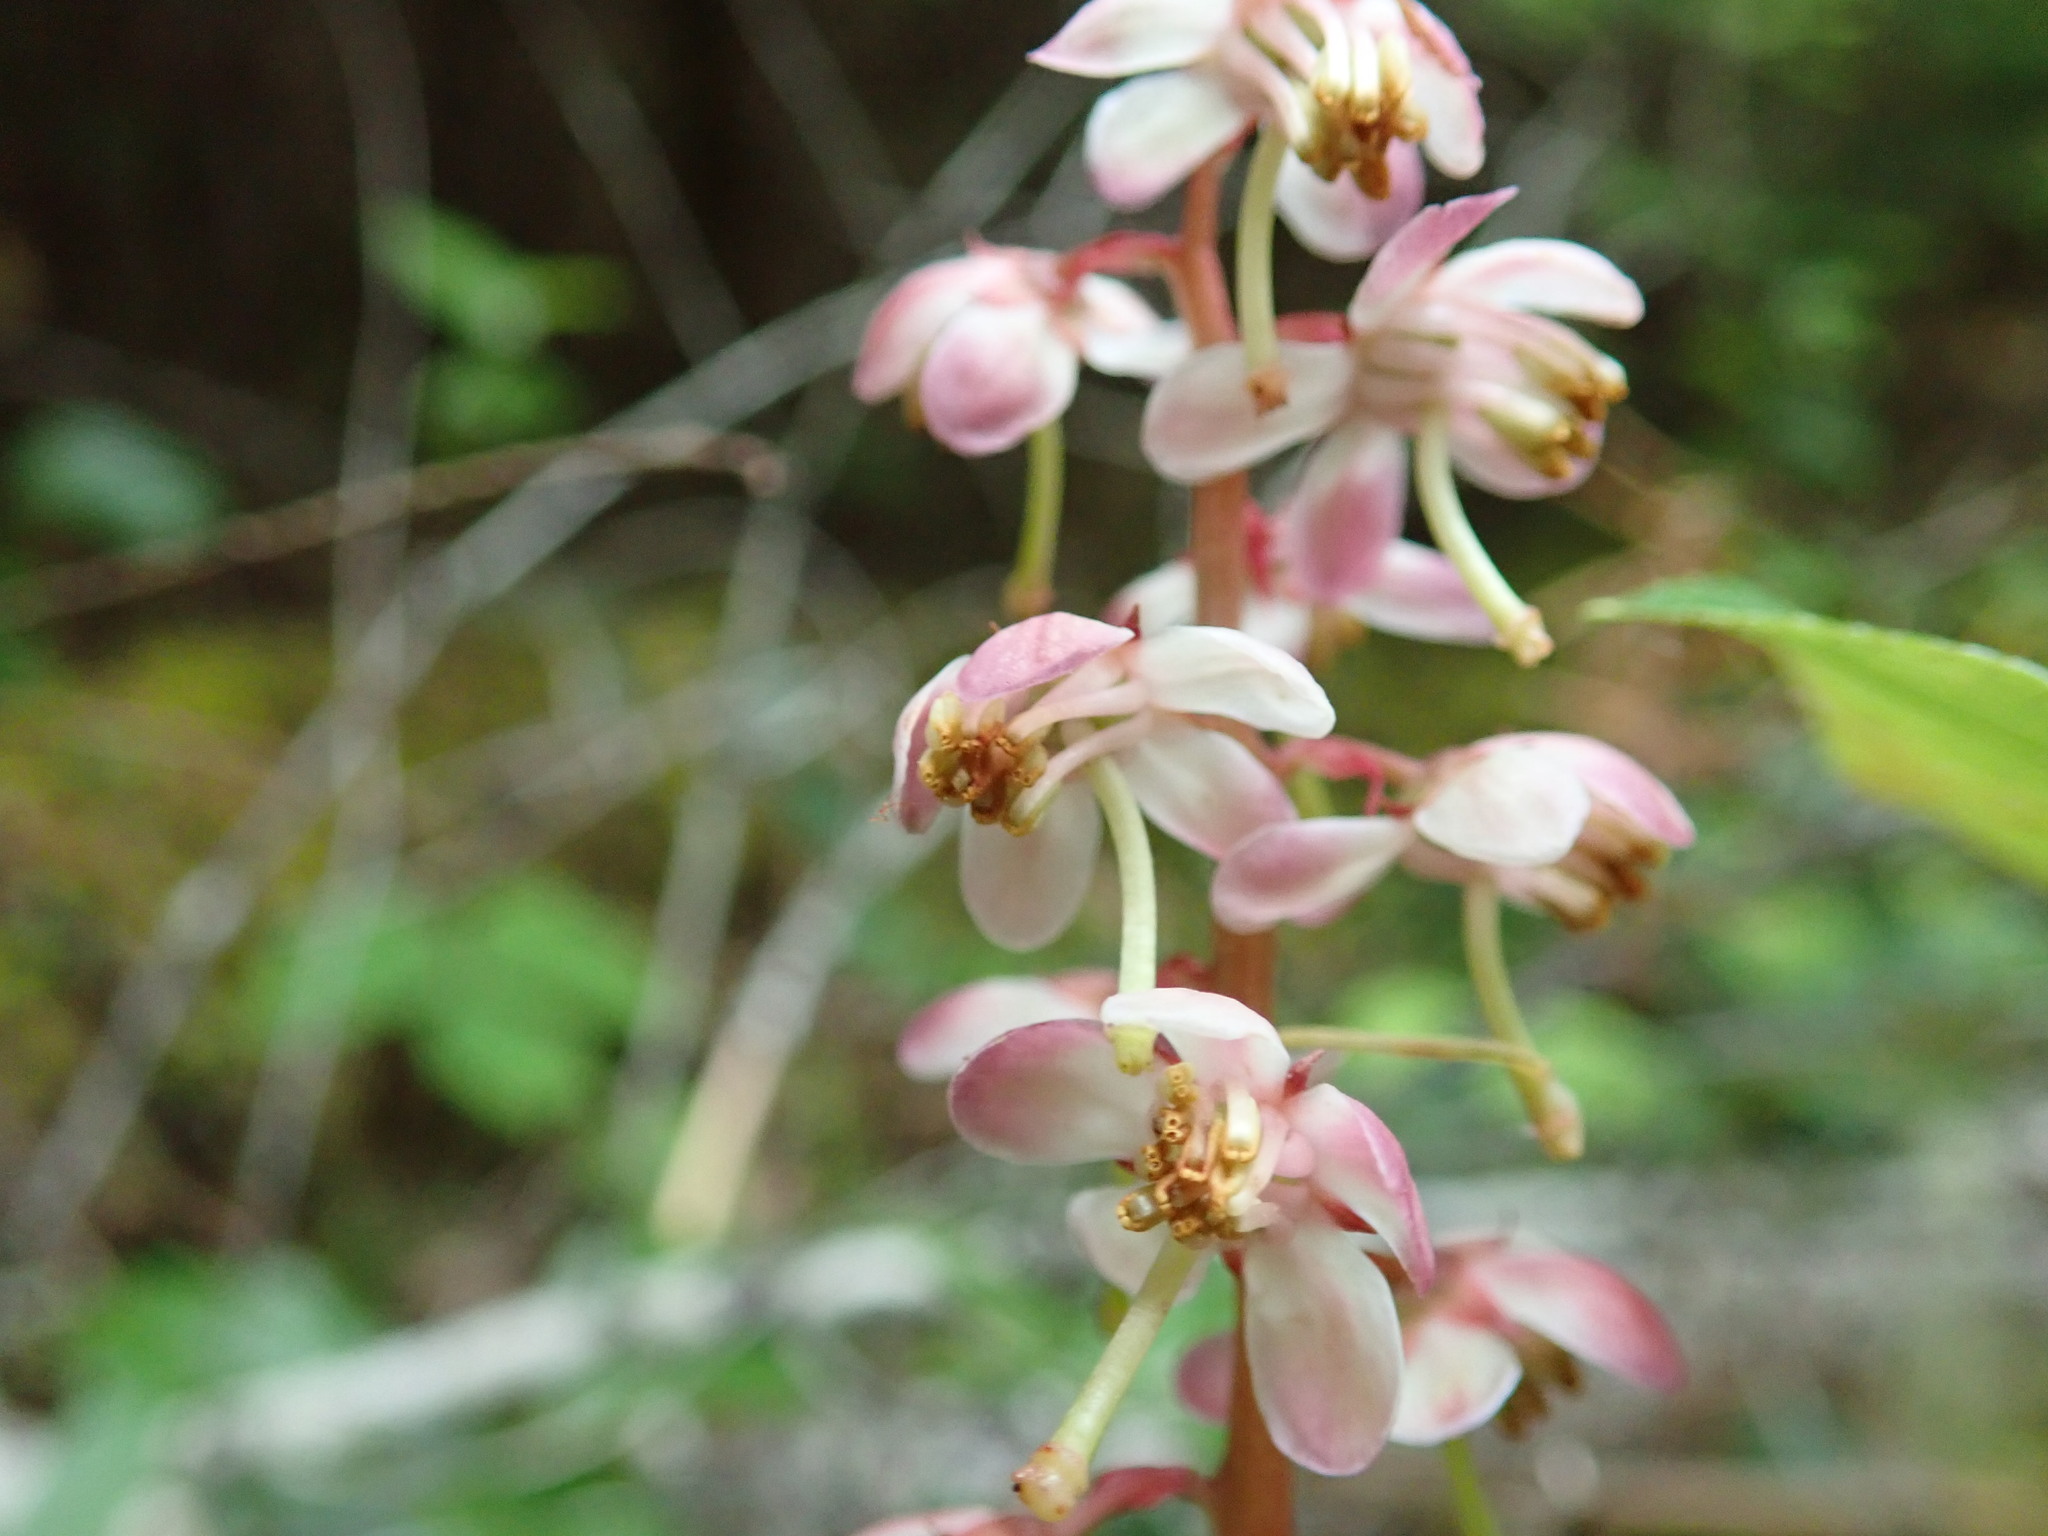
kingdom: Plantae
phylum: Tracheophyta
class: Magnoliopsida
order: Ericales
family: Ericaceae
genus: Pyrola
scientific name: Pyrola asarifolia
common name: Bog wintergreen
